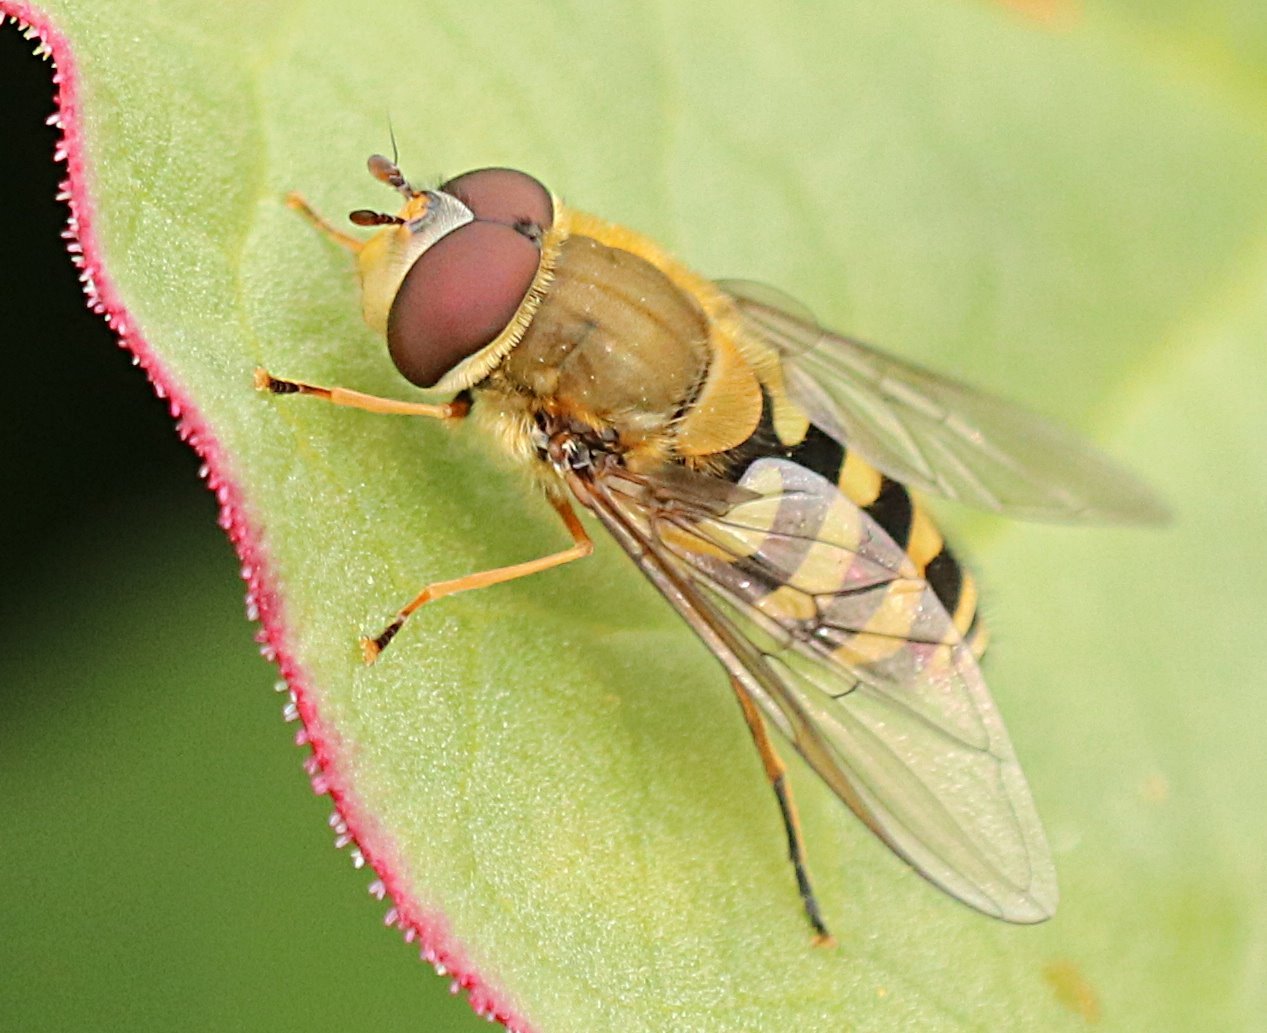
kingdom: Animalia
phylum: Arthropoda
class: Insecta
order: Diptera
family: Syrphidae
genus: Syrphus
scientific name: Syrphus
